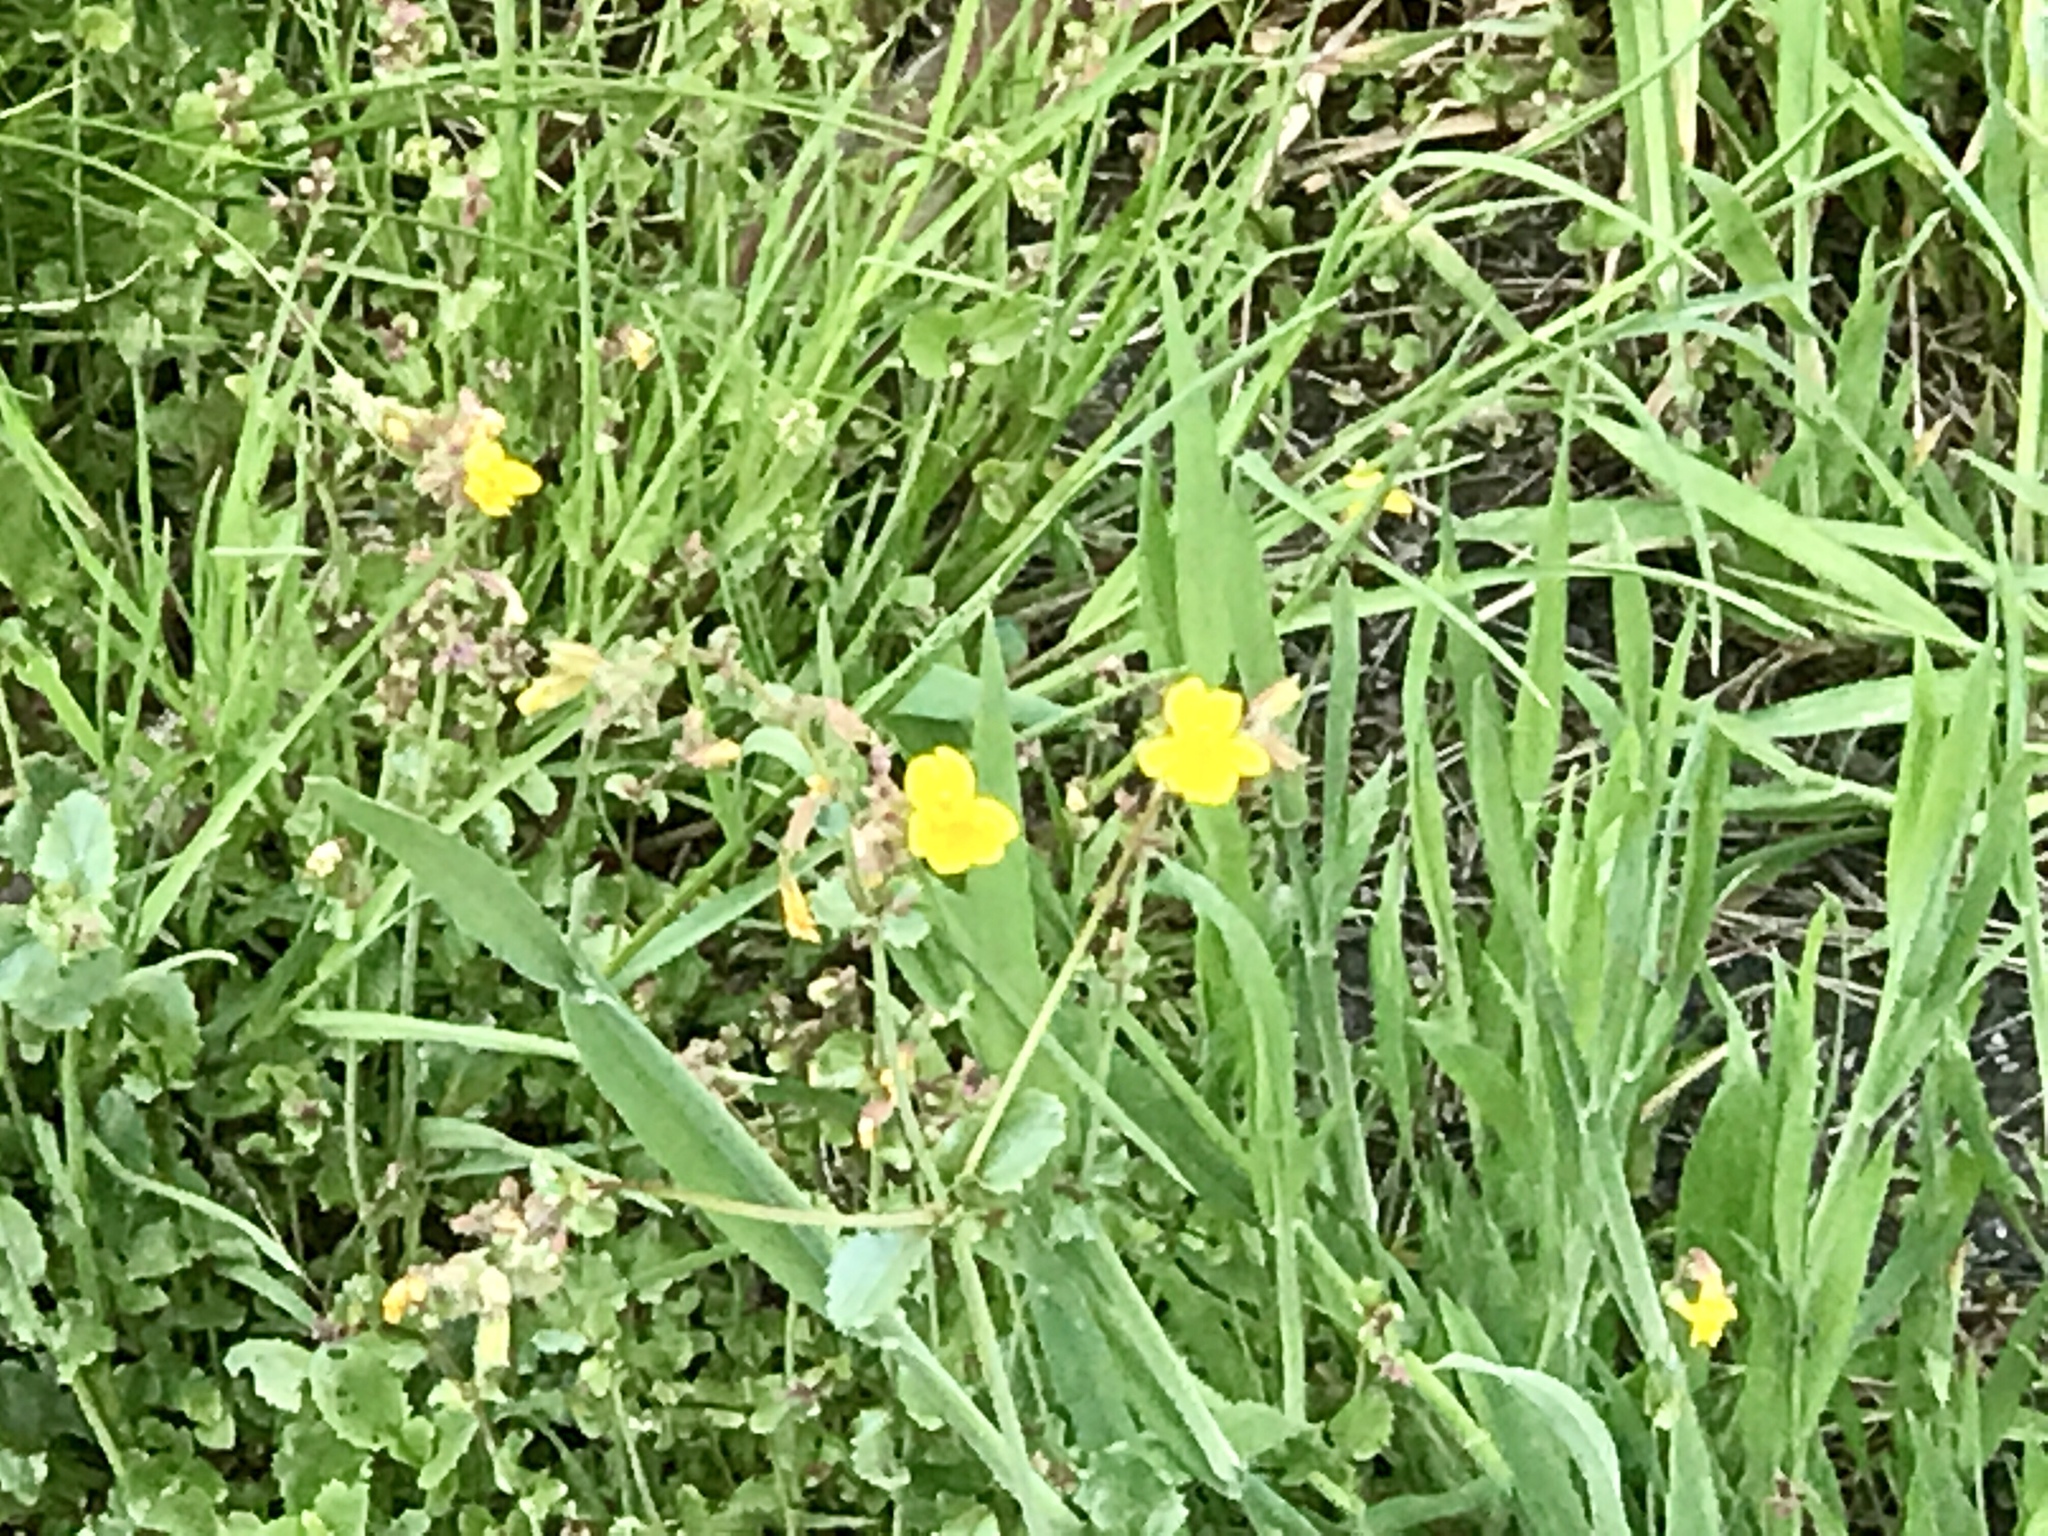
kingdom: Plantae
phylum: Tracheophyta
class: Magnoliopsida
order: Lamiales
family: Phrymaceae
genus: Erythranthe
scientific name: Erythranthe guttata
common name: Monkeyflower
